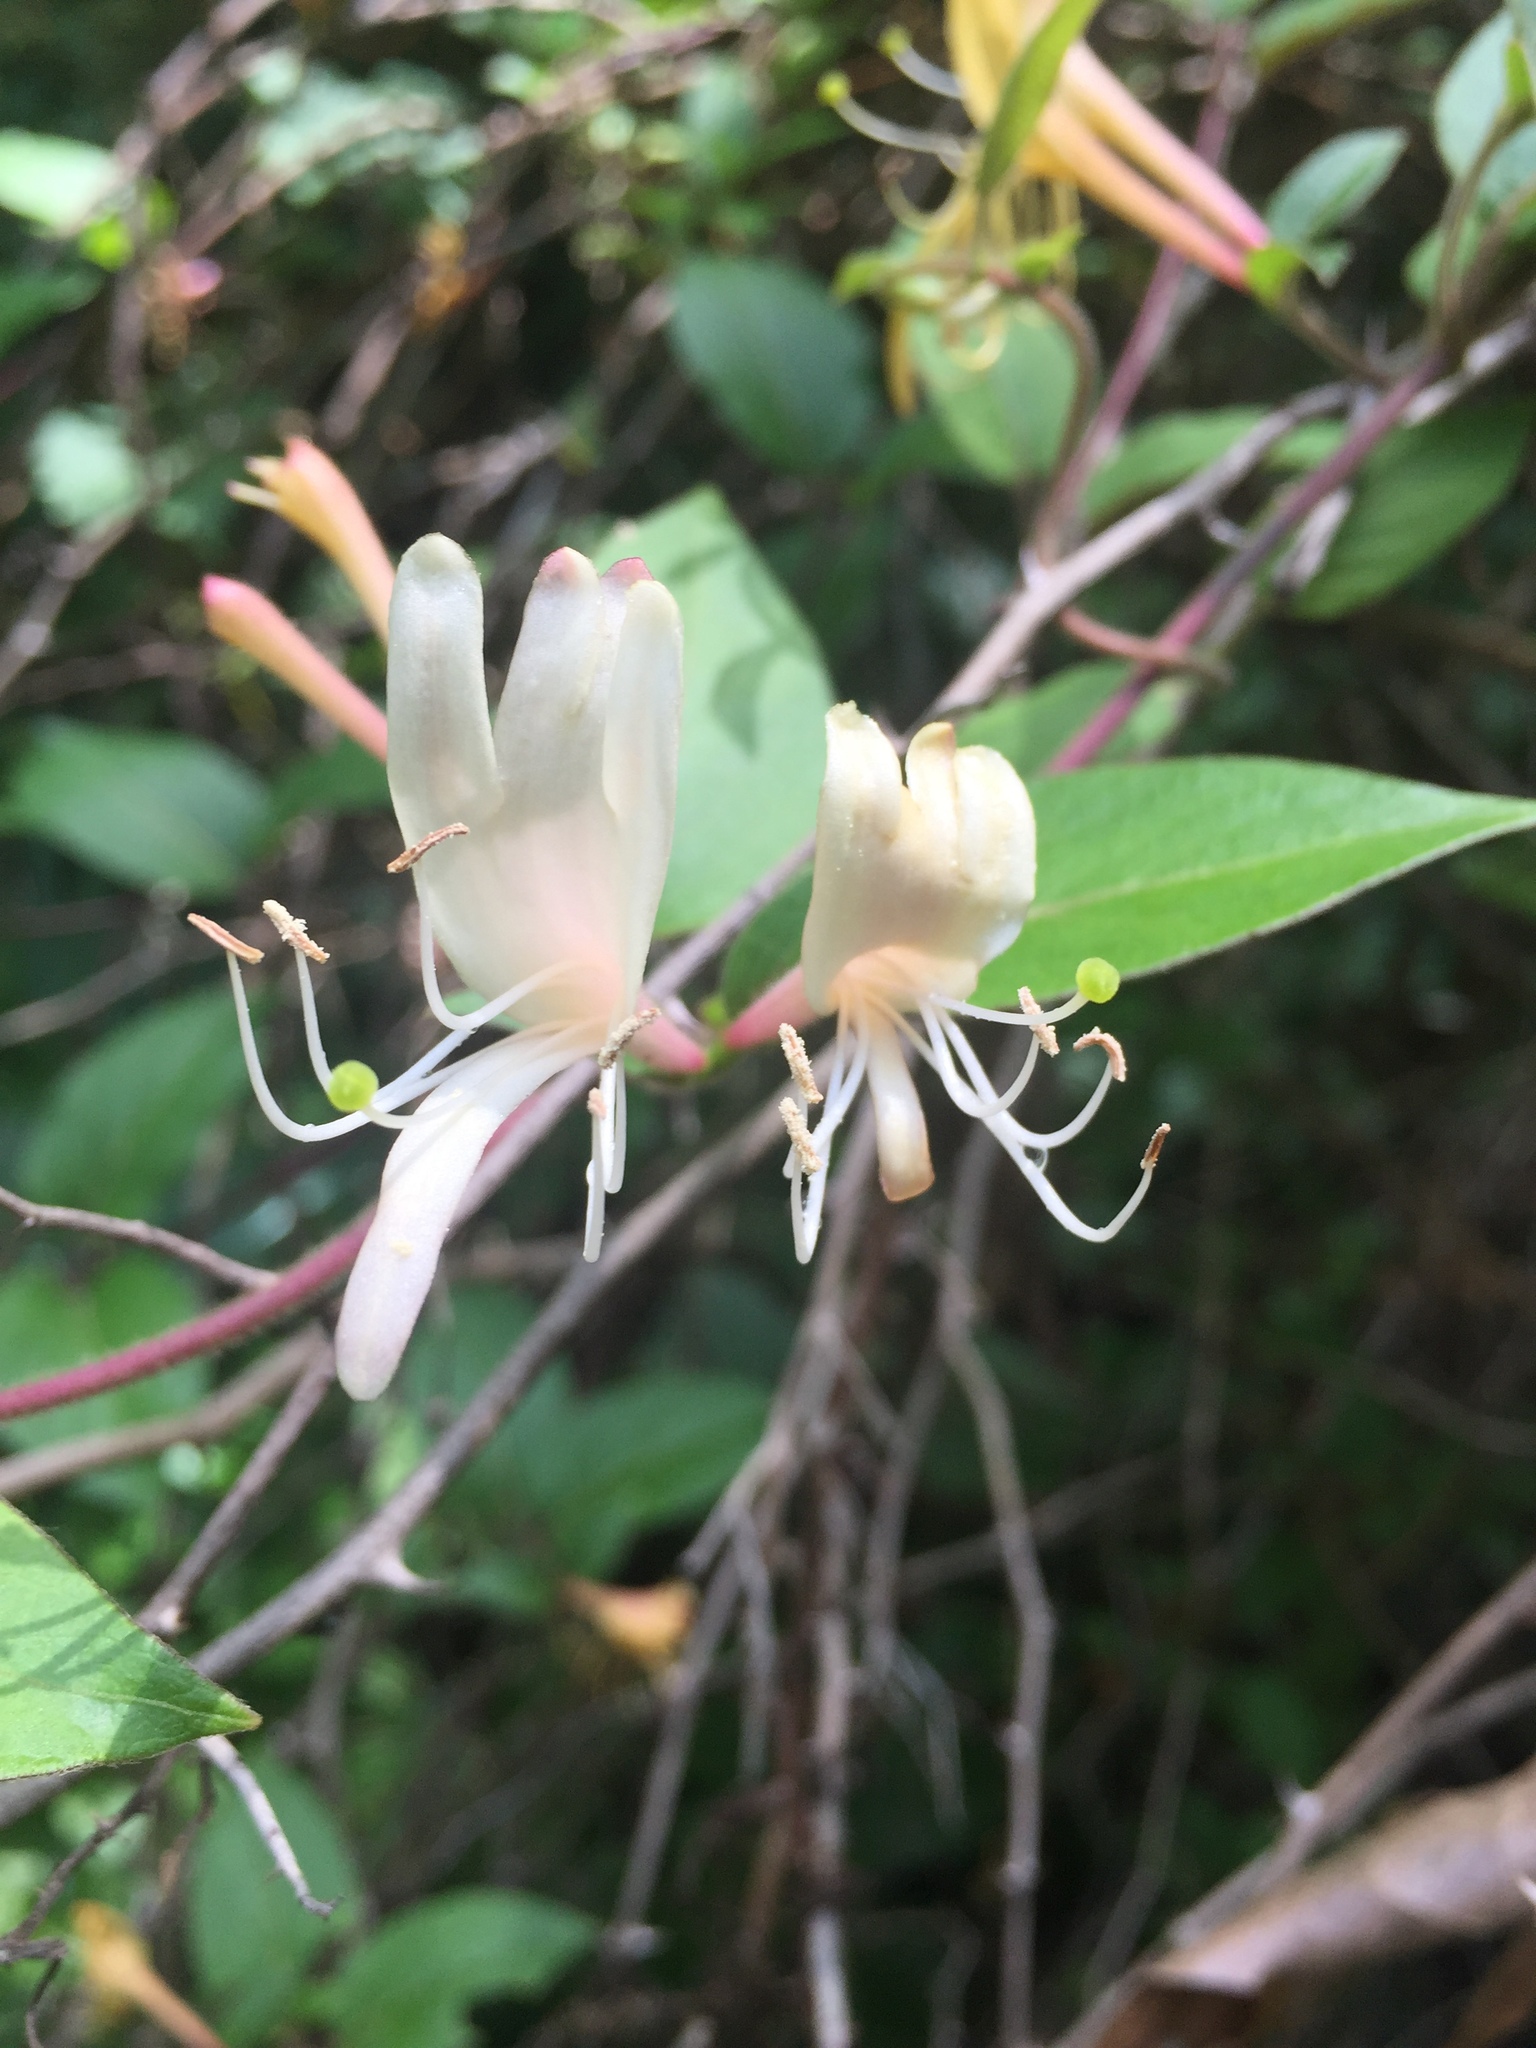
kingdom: Plantae
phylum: Tracheophyta
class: Magnoliopsida
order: Dipsacales
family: Caprifoliaceae
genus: Lonicera
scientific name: Lonicera japonica
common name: Japanese honeysuckle
